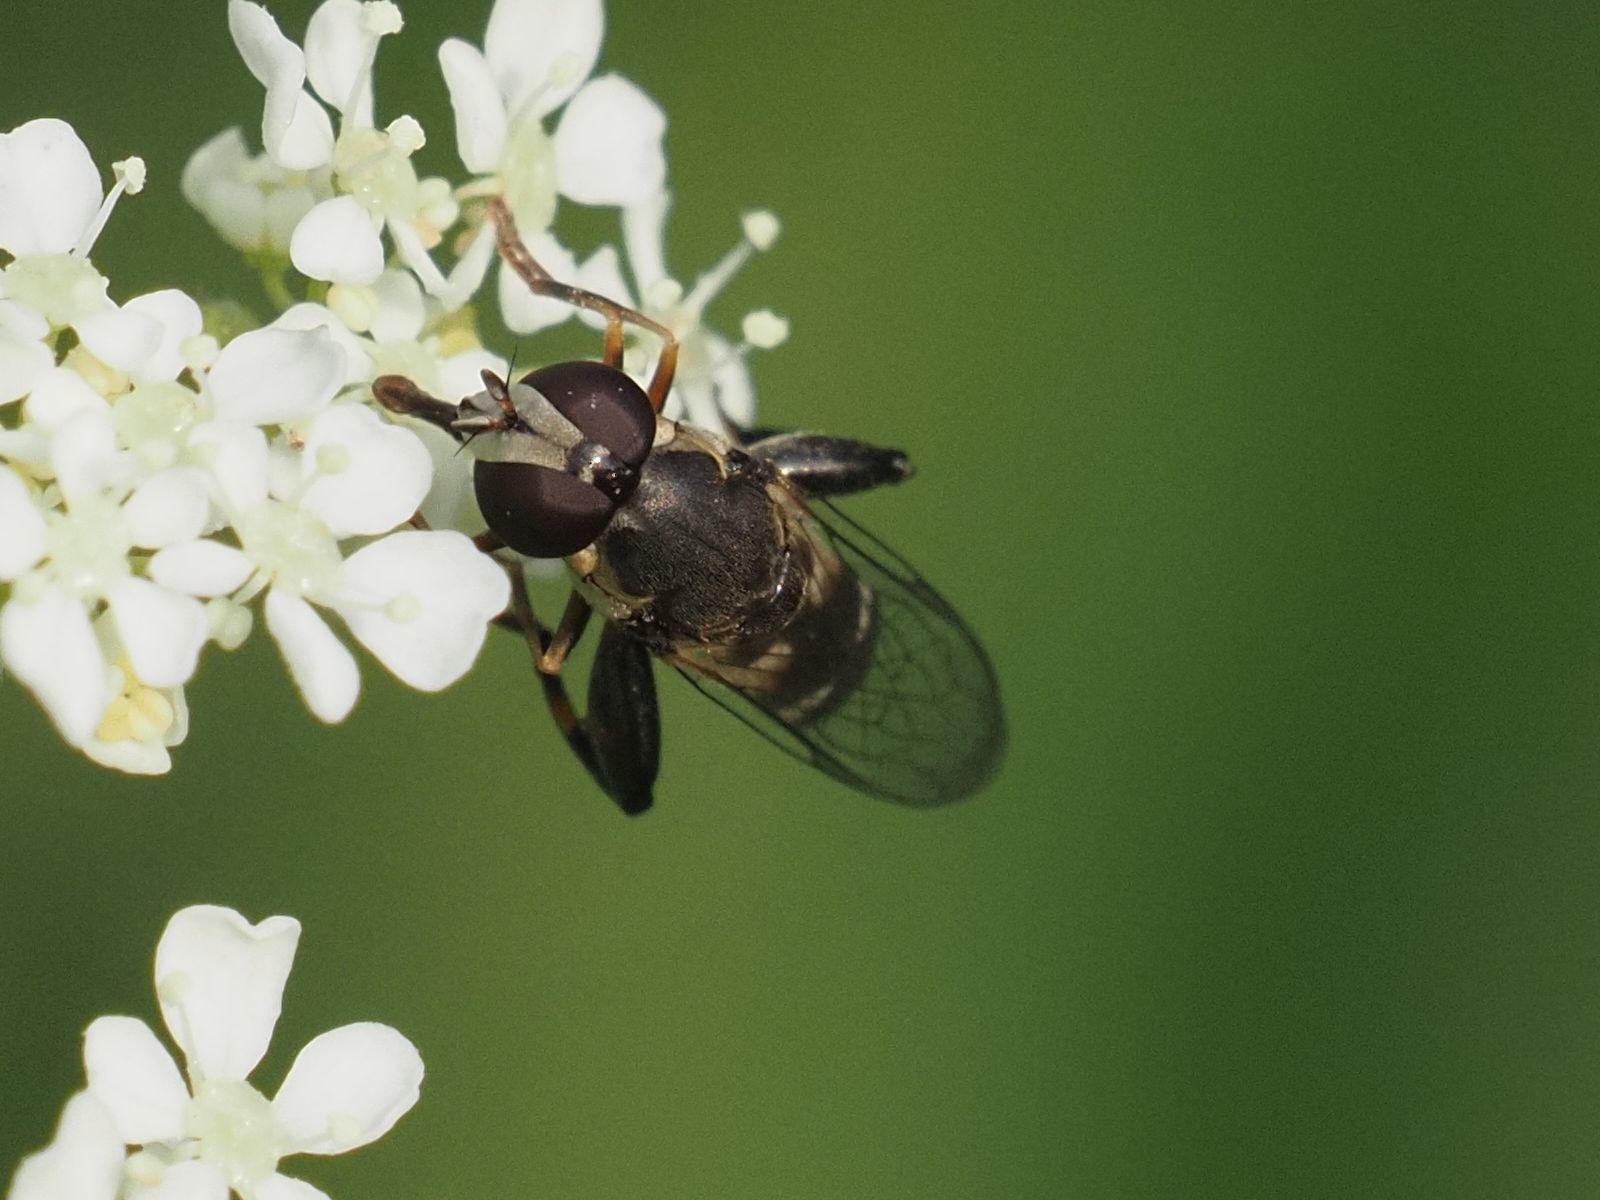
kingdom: Animalia
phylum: Arthropoda
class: Insecta
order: Diptera
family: Syrphidae
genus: Syritta
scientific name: Syritta pipiens
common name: Hover fly
